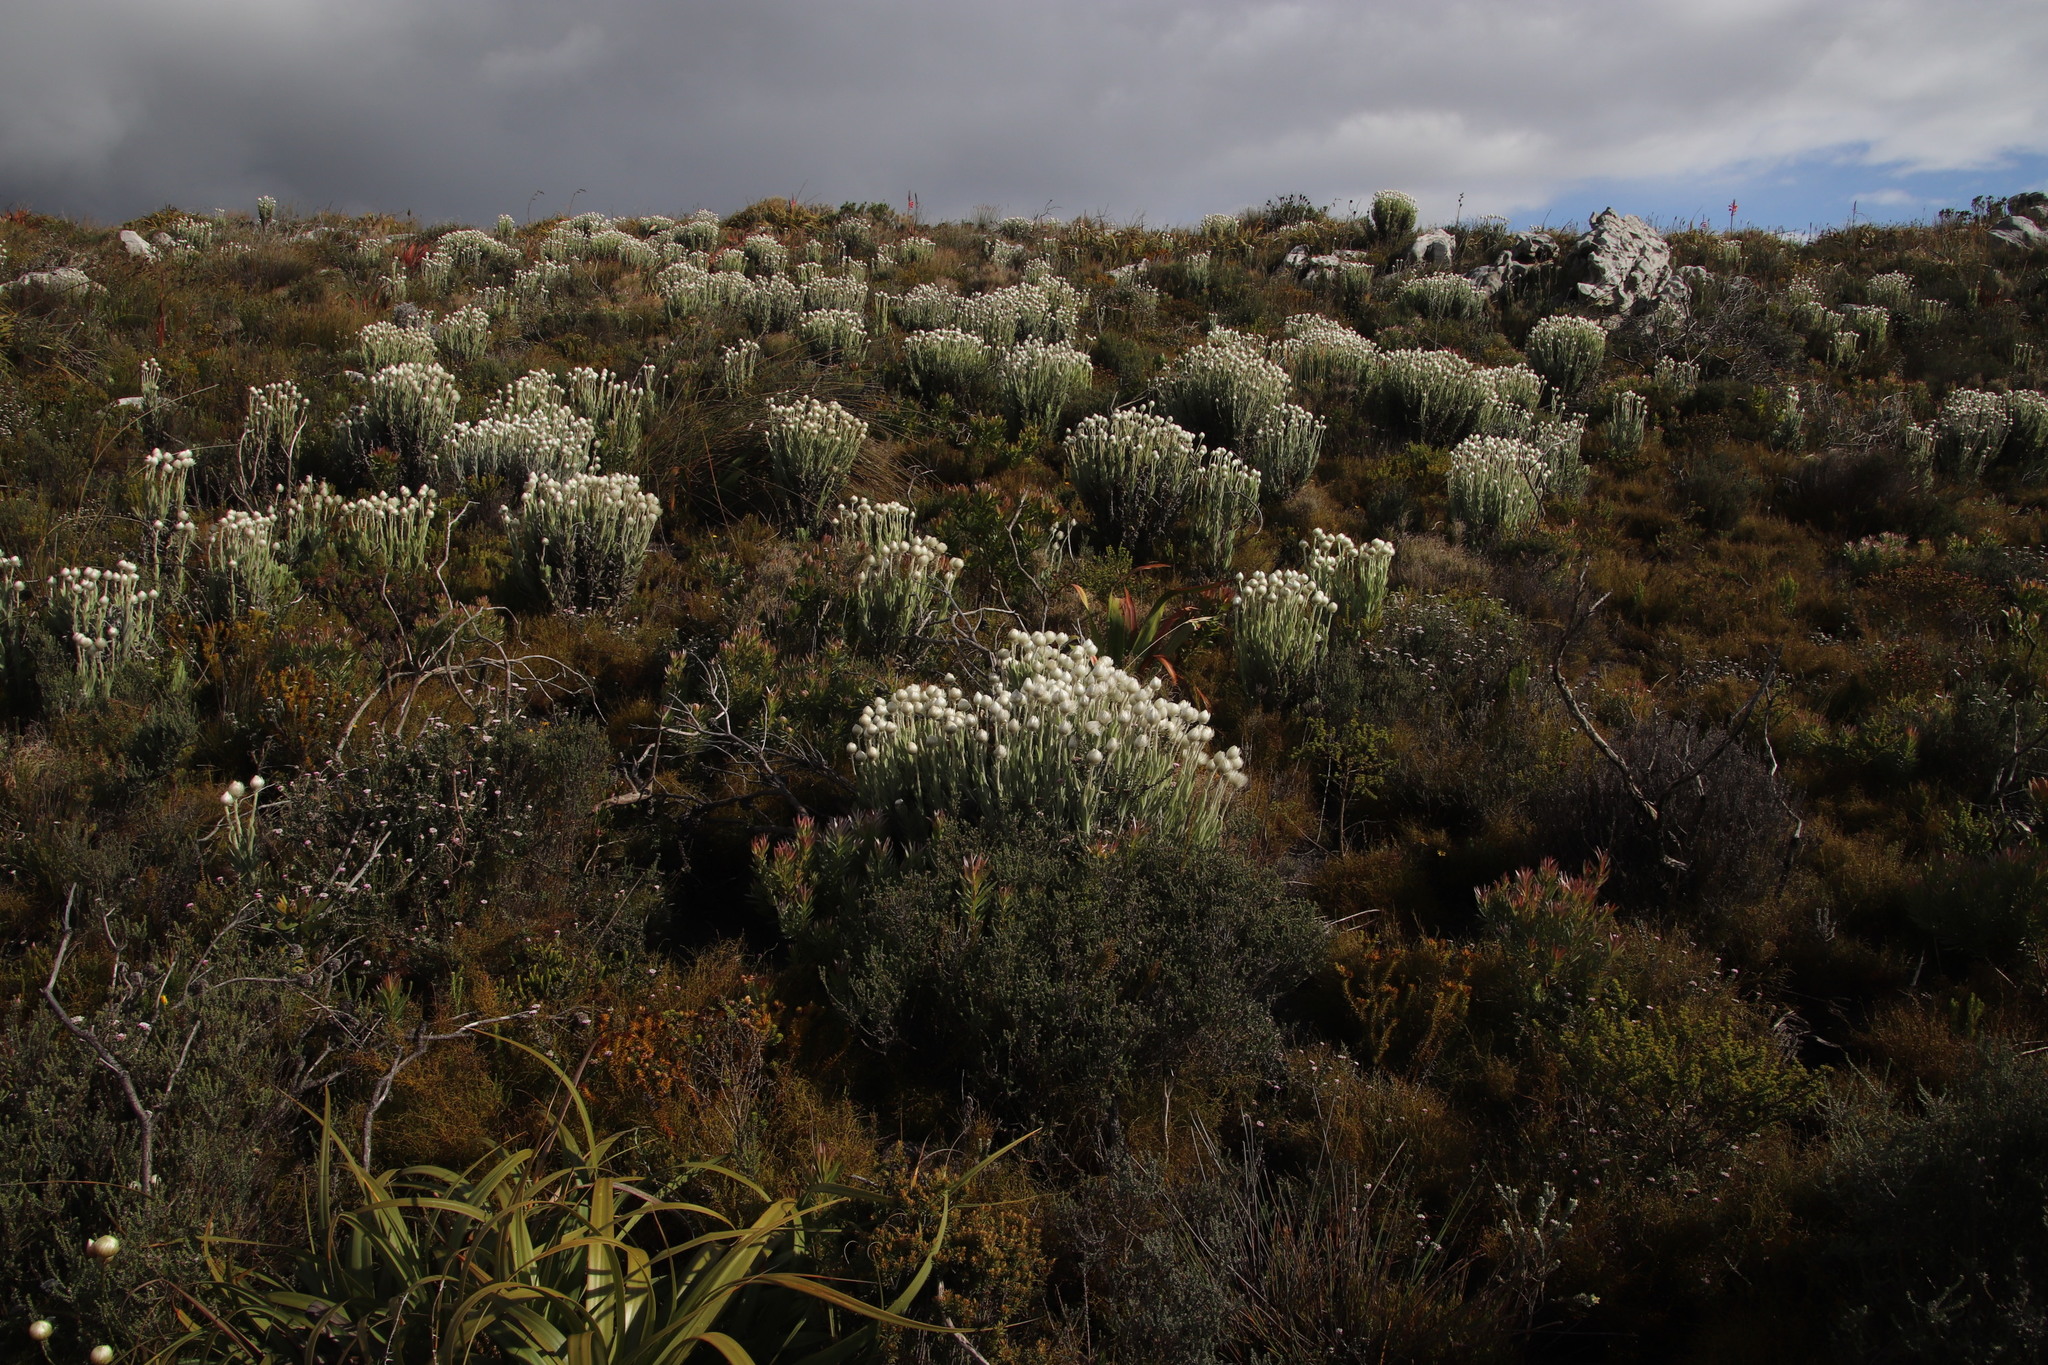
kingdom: Plantae
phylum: Tracheophyta
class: Magnoliopsida
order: Asterales
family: Asteraceae
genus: Syncarpha
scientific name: Syncarpha vestita
